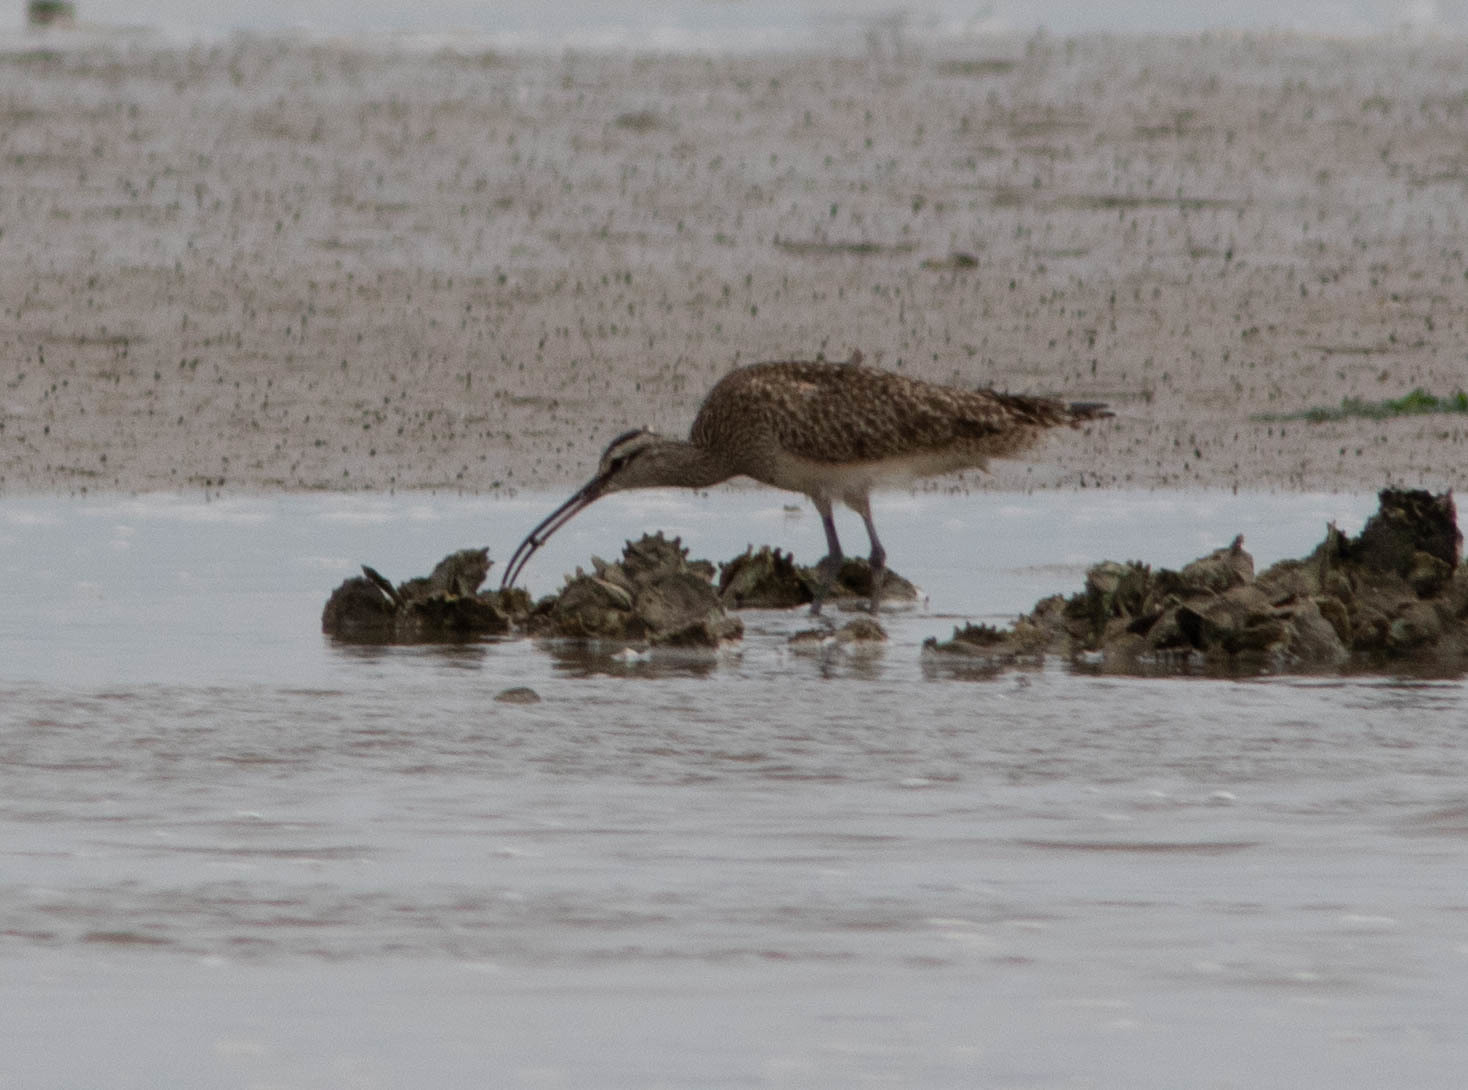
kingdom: Animalia
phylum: Chordata
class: Aves
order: Charadriiformes
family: Scolopacidae
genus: Numenius
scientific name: Numenius phaeopus
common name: Whimbrel
